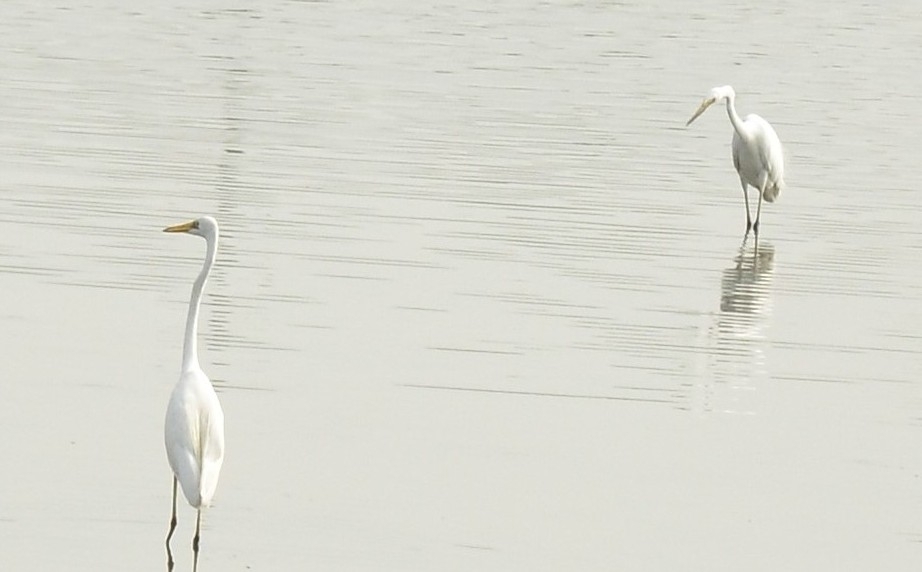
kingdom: Animalia
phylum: Chordata
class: Aves
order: Pelecaniformes
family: Ardeidae
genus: Ardea
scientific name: Ardea alba
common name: Great egret
